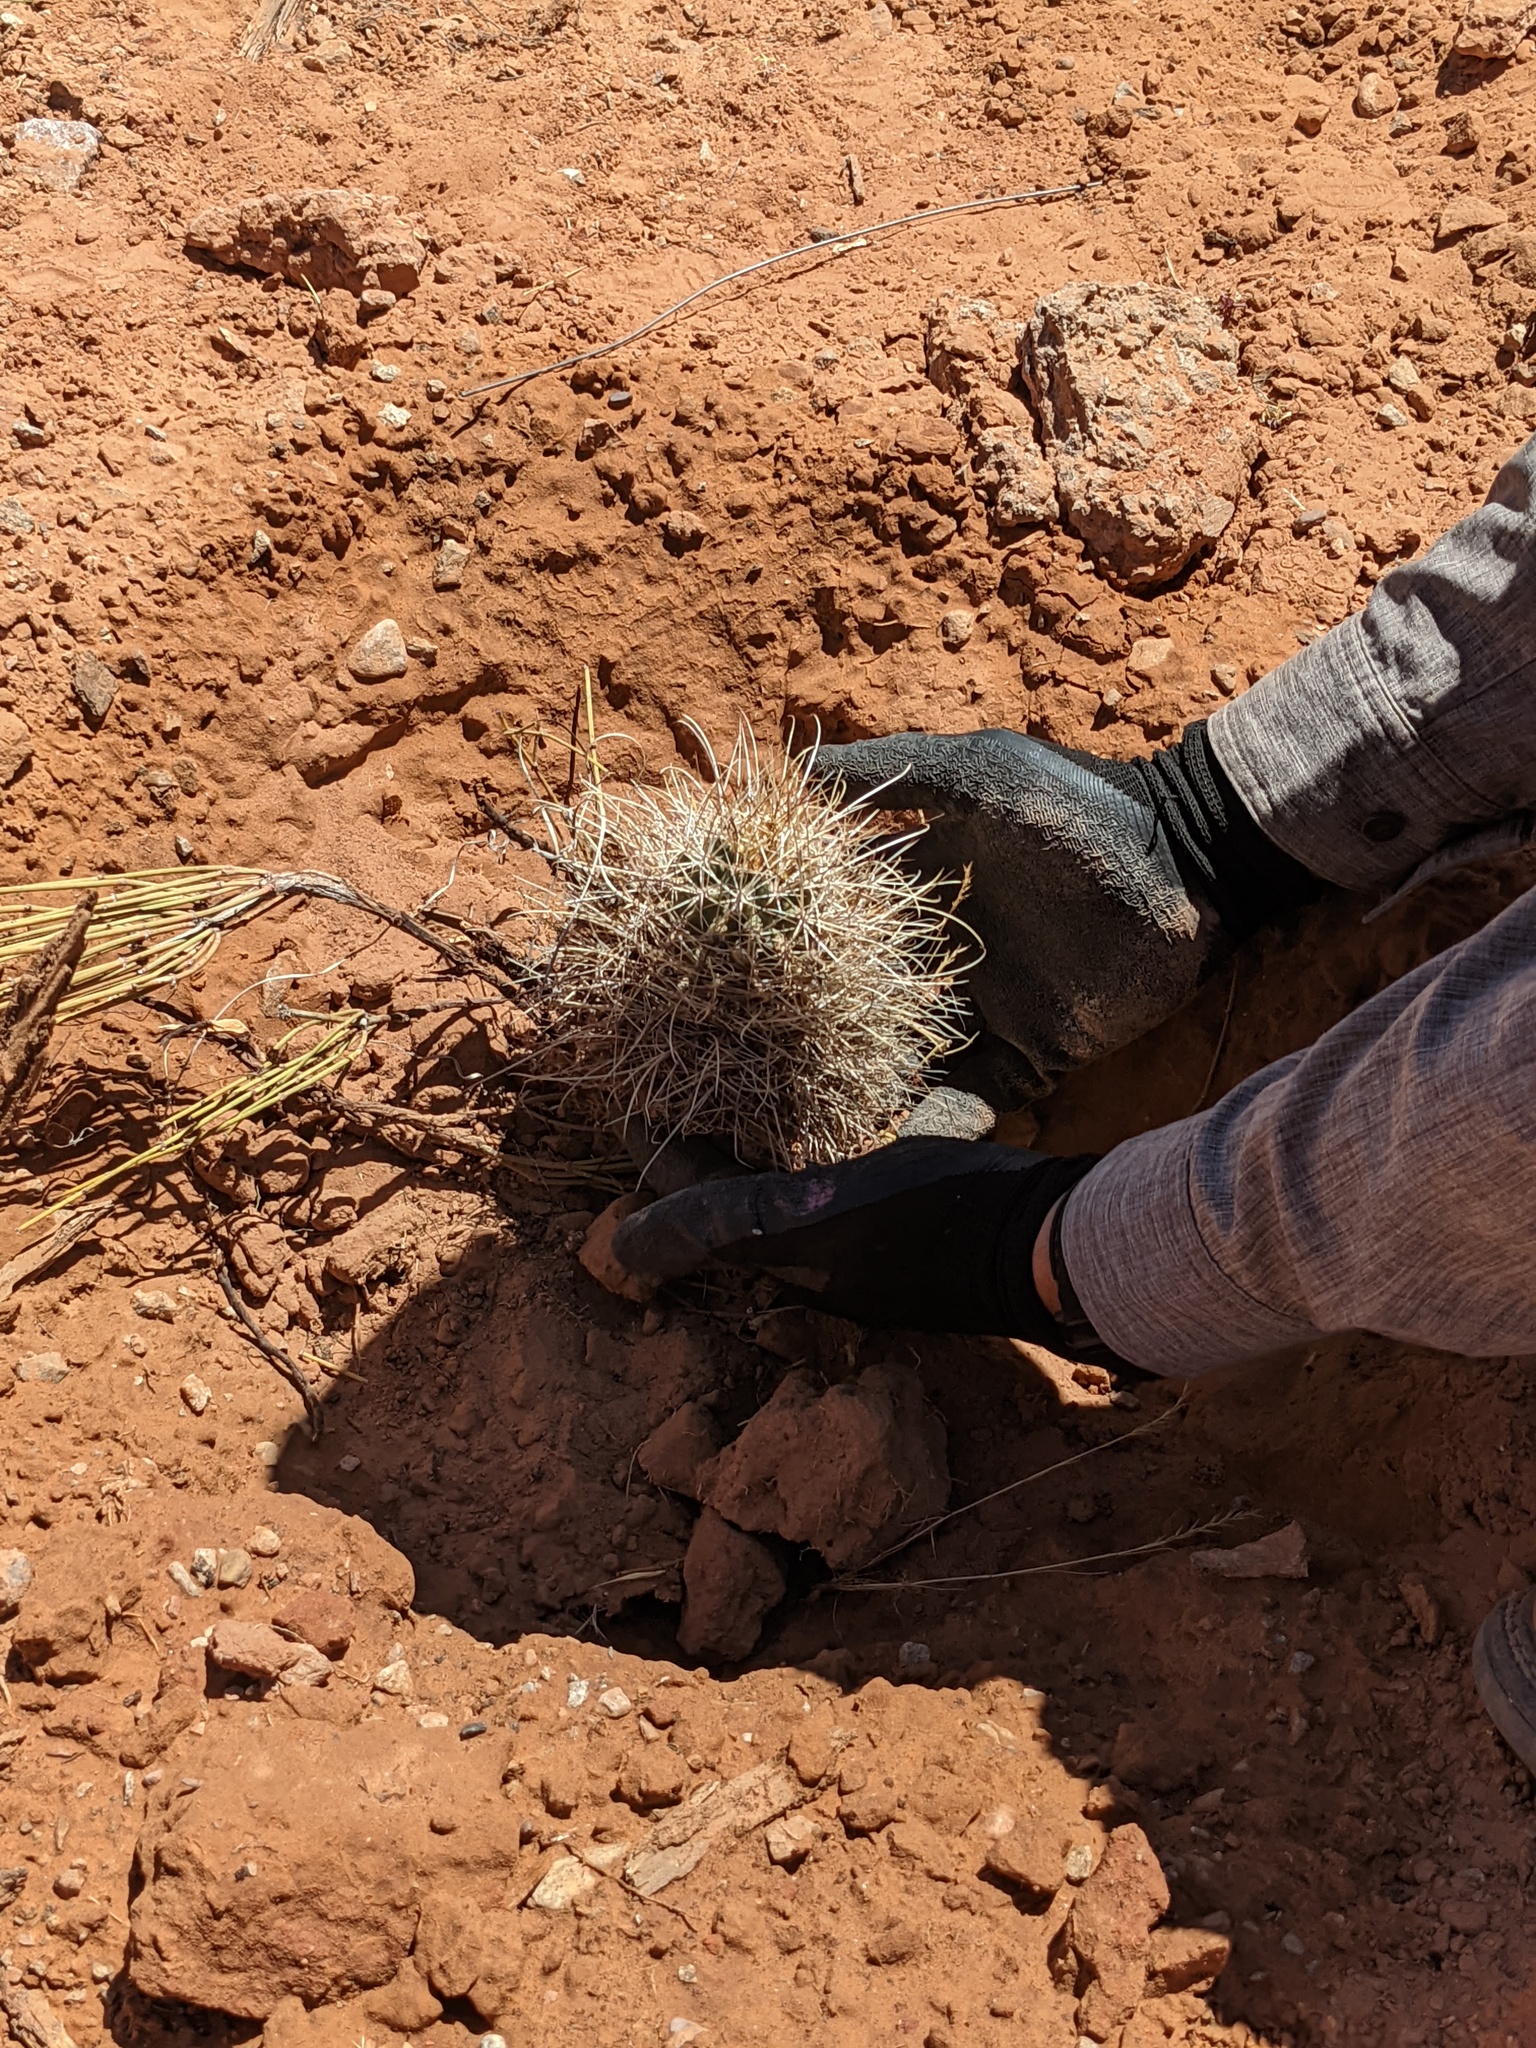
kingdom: Plantae
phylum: Tracheophyta
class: Magnoliopsida
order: Caryophyllales
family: Cactaceae
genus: Sclerocactus
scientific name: Sclerocactus parviflorus
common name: Small-flower fishhook cactus
